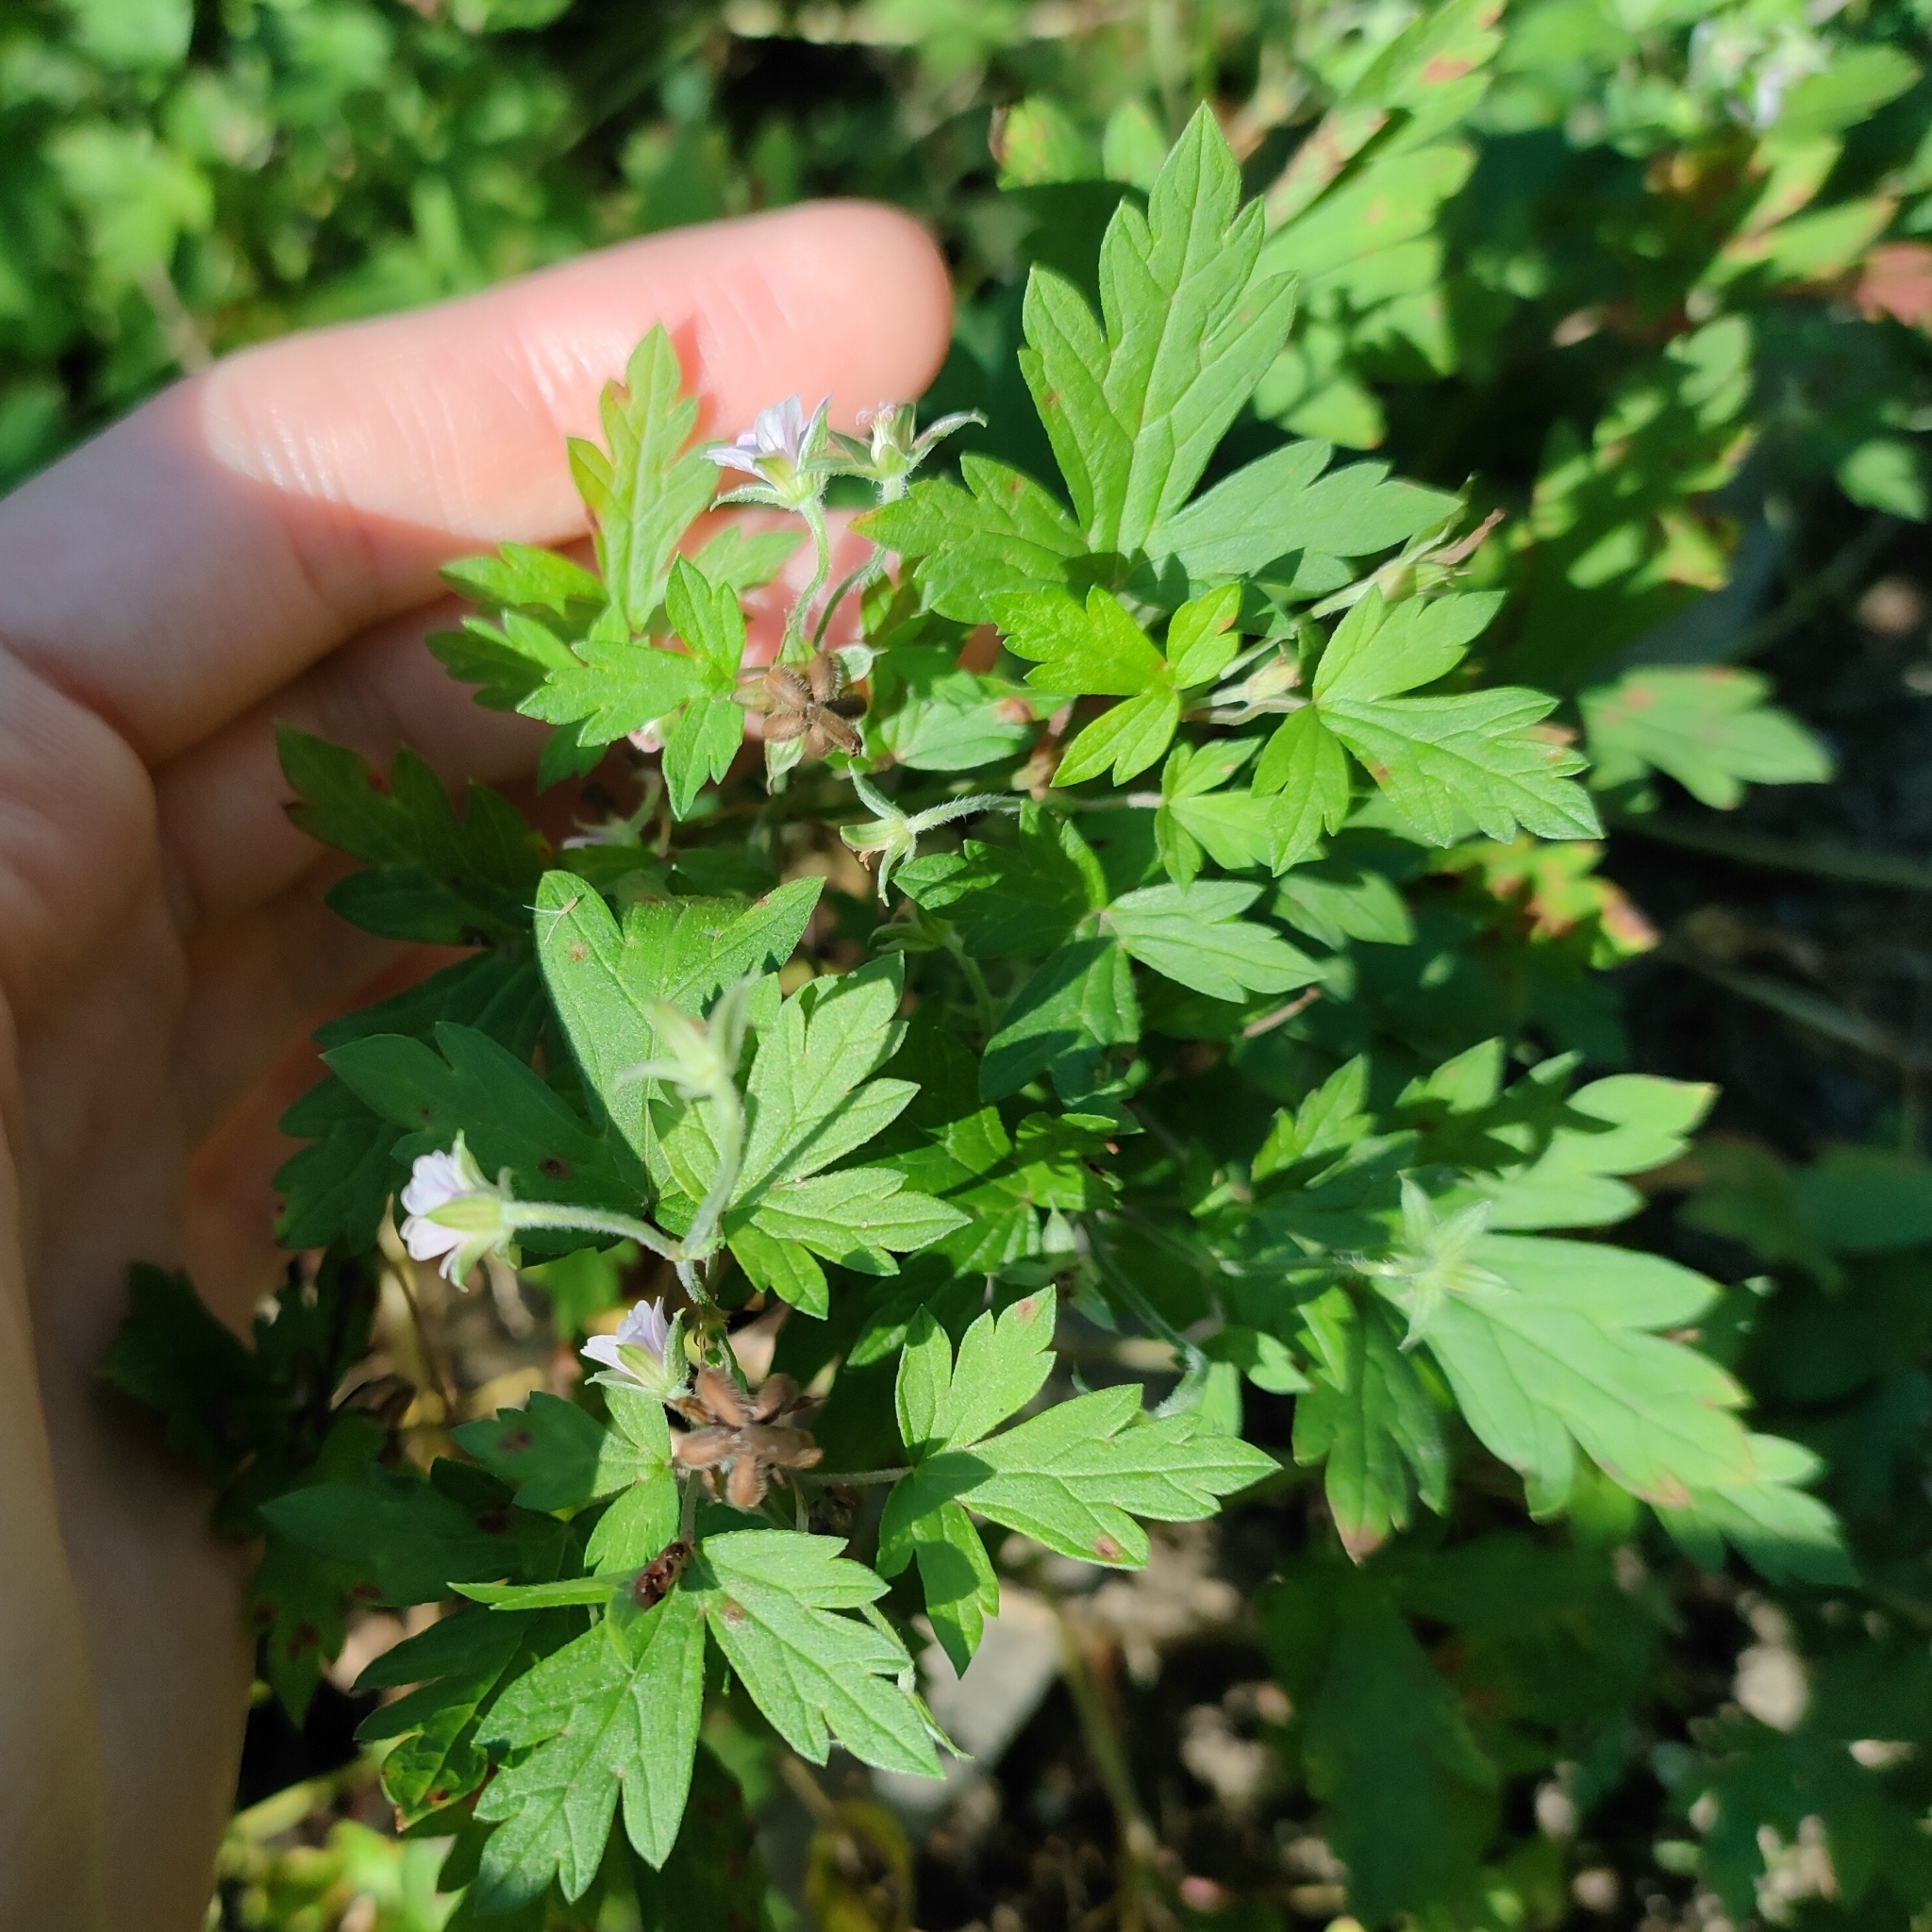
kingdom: Plantae
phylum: Tracheophyta
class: Magnoliopsida
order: Geraniales
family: Geraniaceae
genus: Geranium
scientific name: Geranium sibiricum
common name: Siberian crane's-bill
